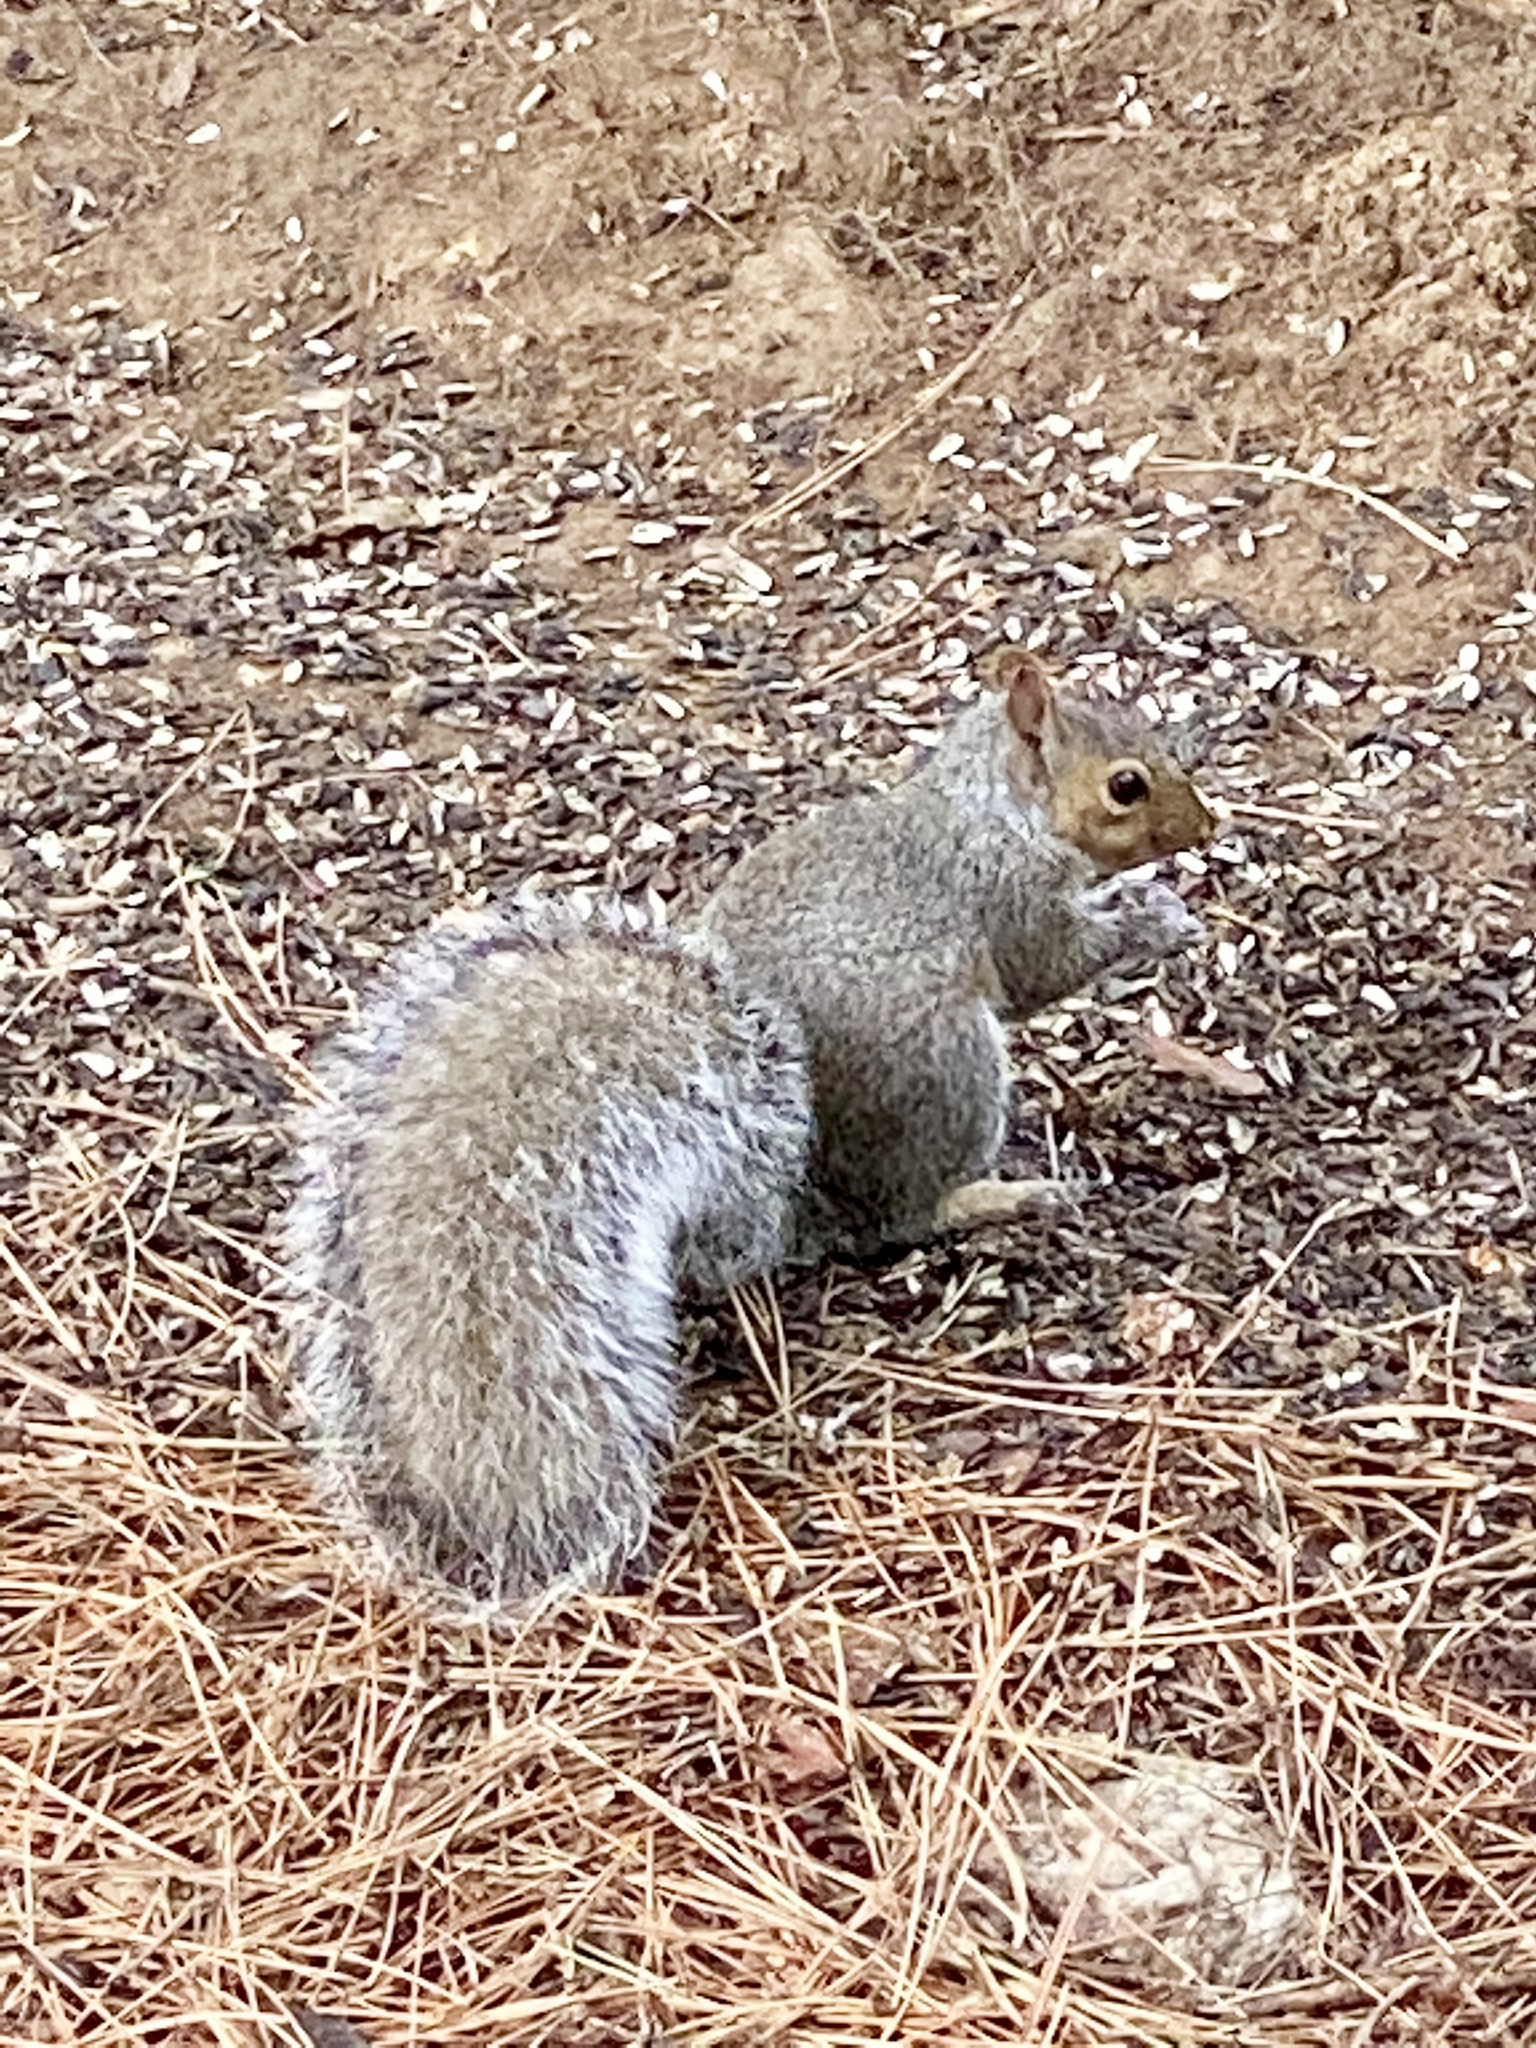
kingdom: Animalia
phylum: Chordata
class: Mammalia
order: Rodentia
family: Sciuridae
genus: Sciurus
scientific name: Sciurus carolinensis
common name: Eastern gray squirrel
